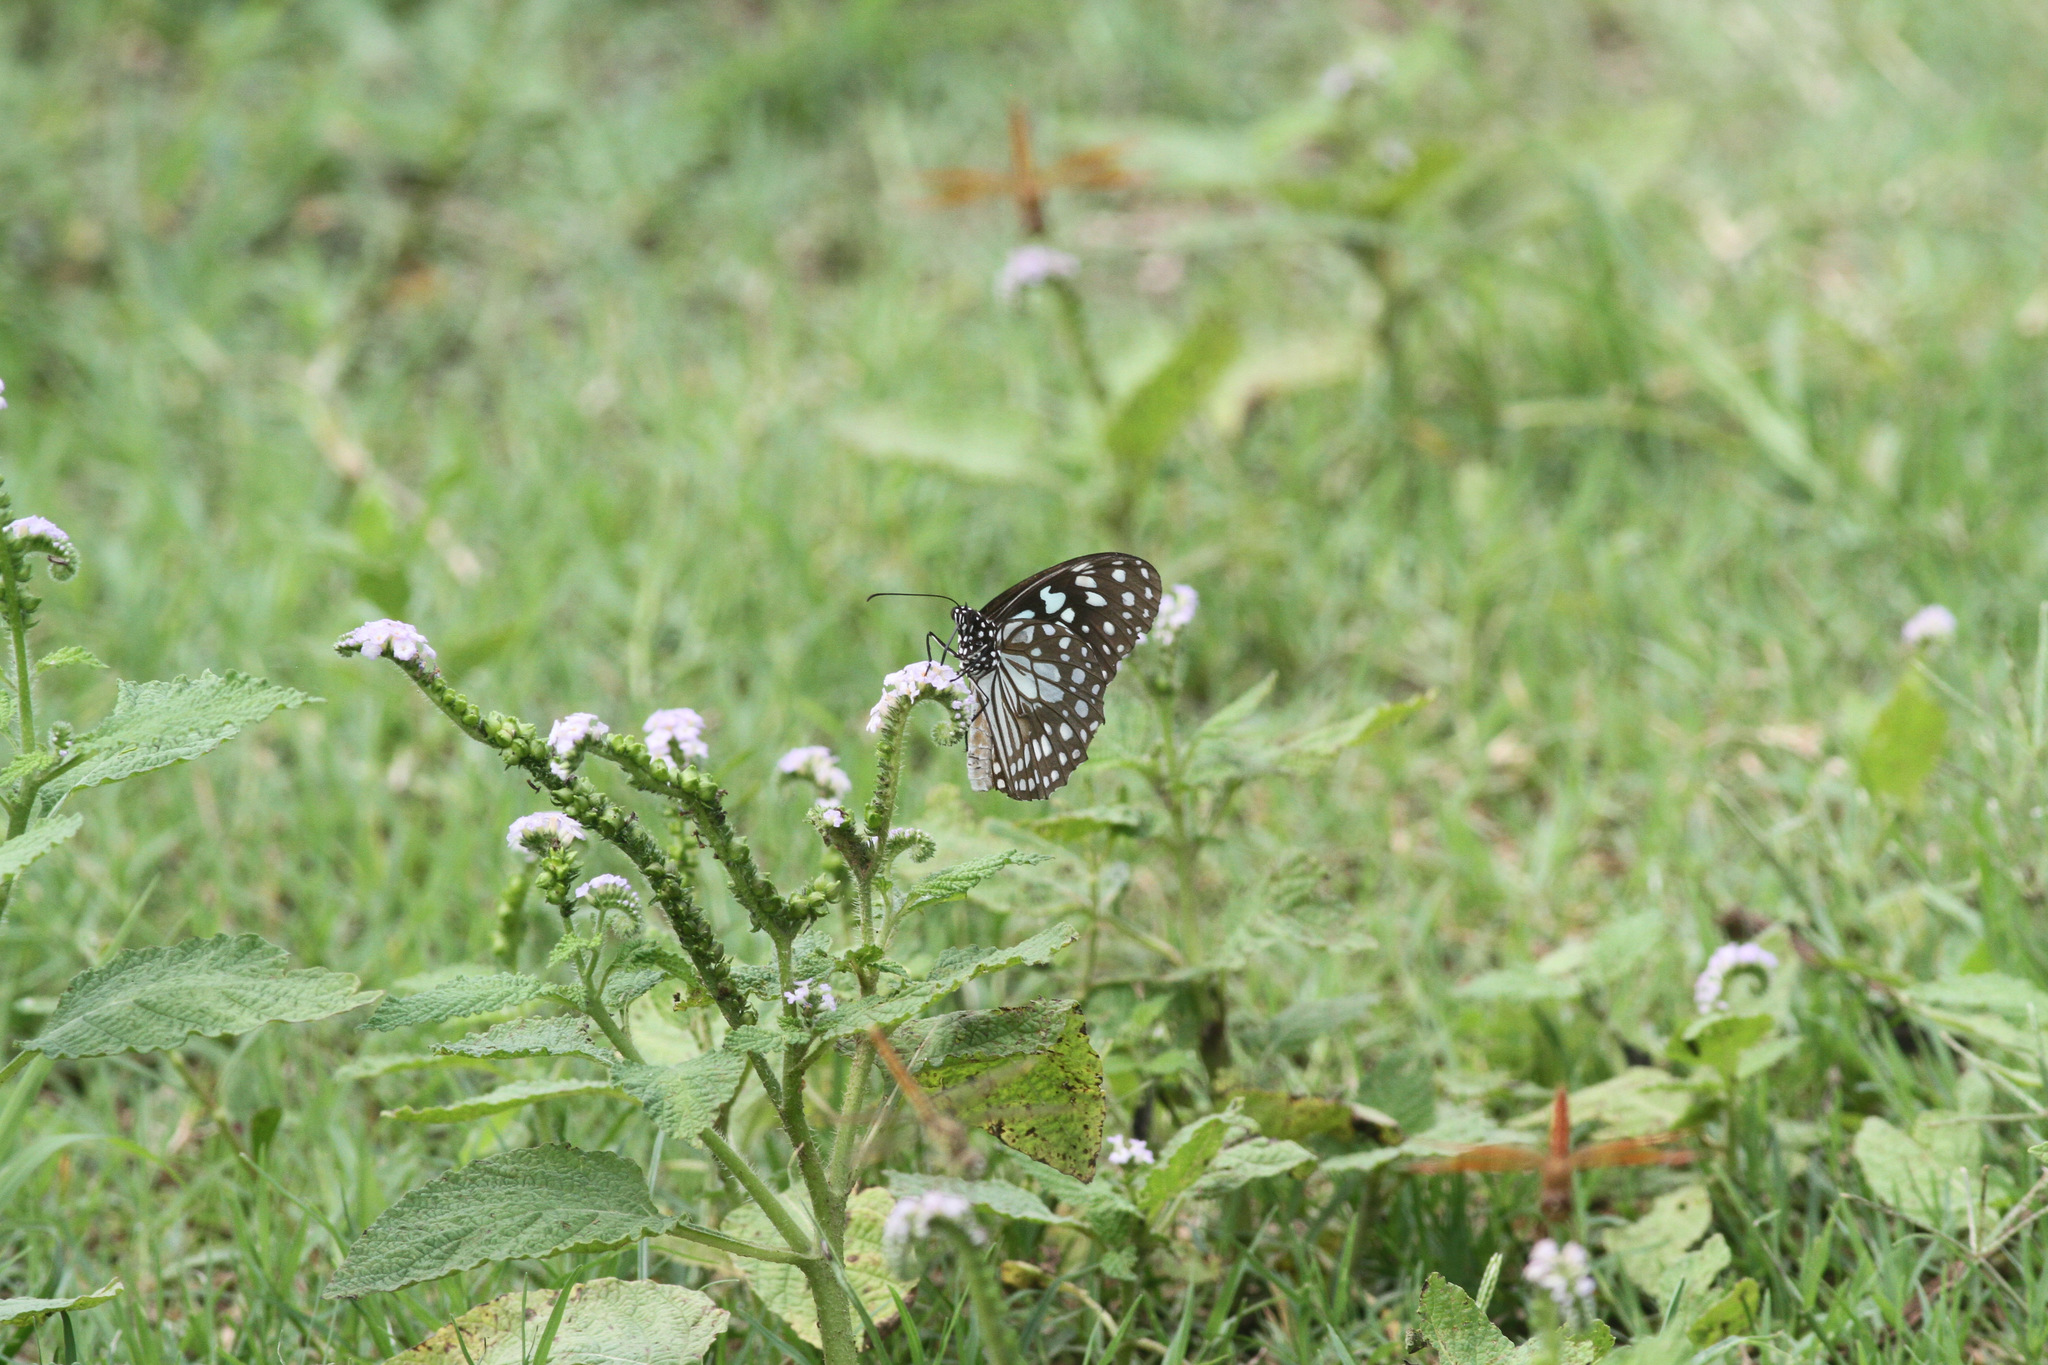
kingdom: Animalia
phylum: Arthropoda
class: Insecta
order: Lepidoptera
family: Nymphalidae
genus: Tirumala
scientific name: Tirumala limniace
